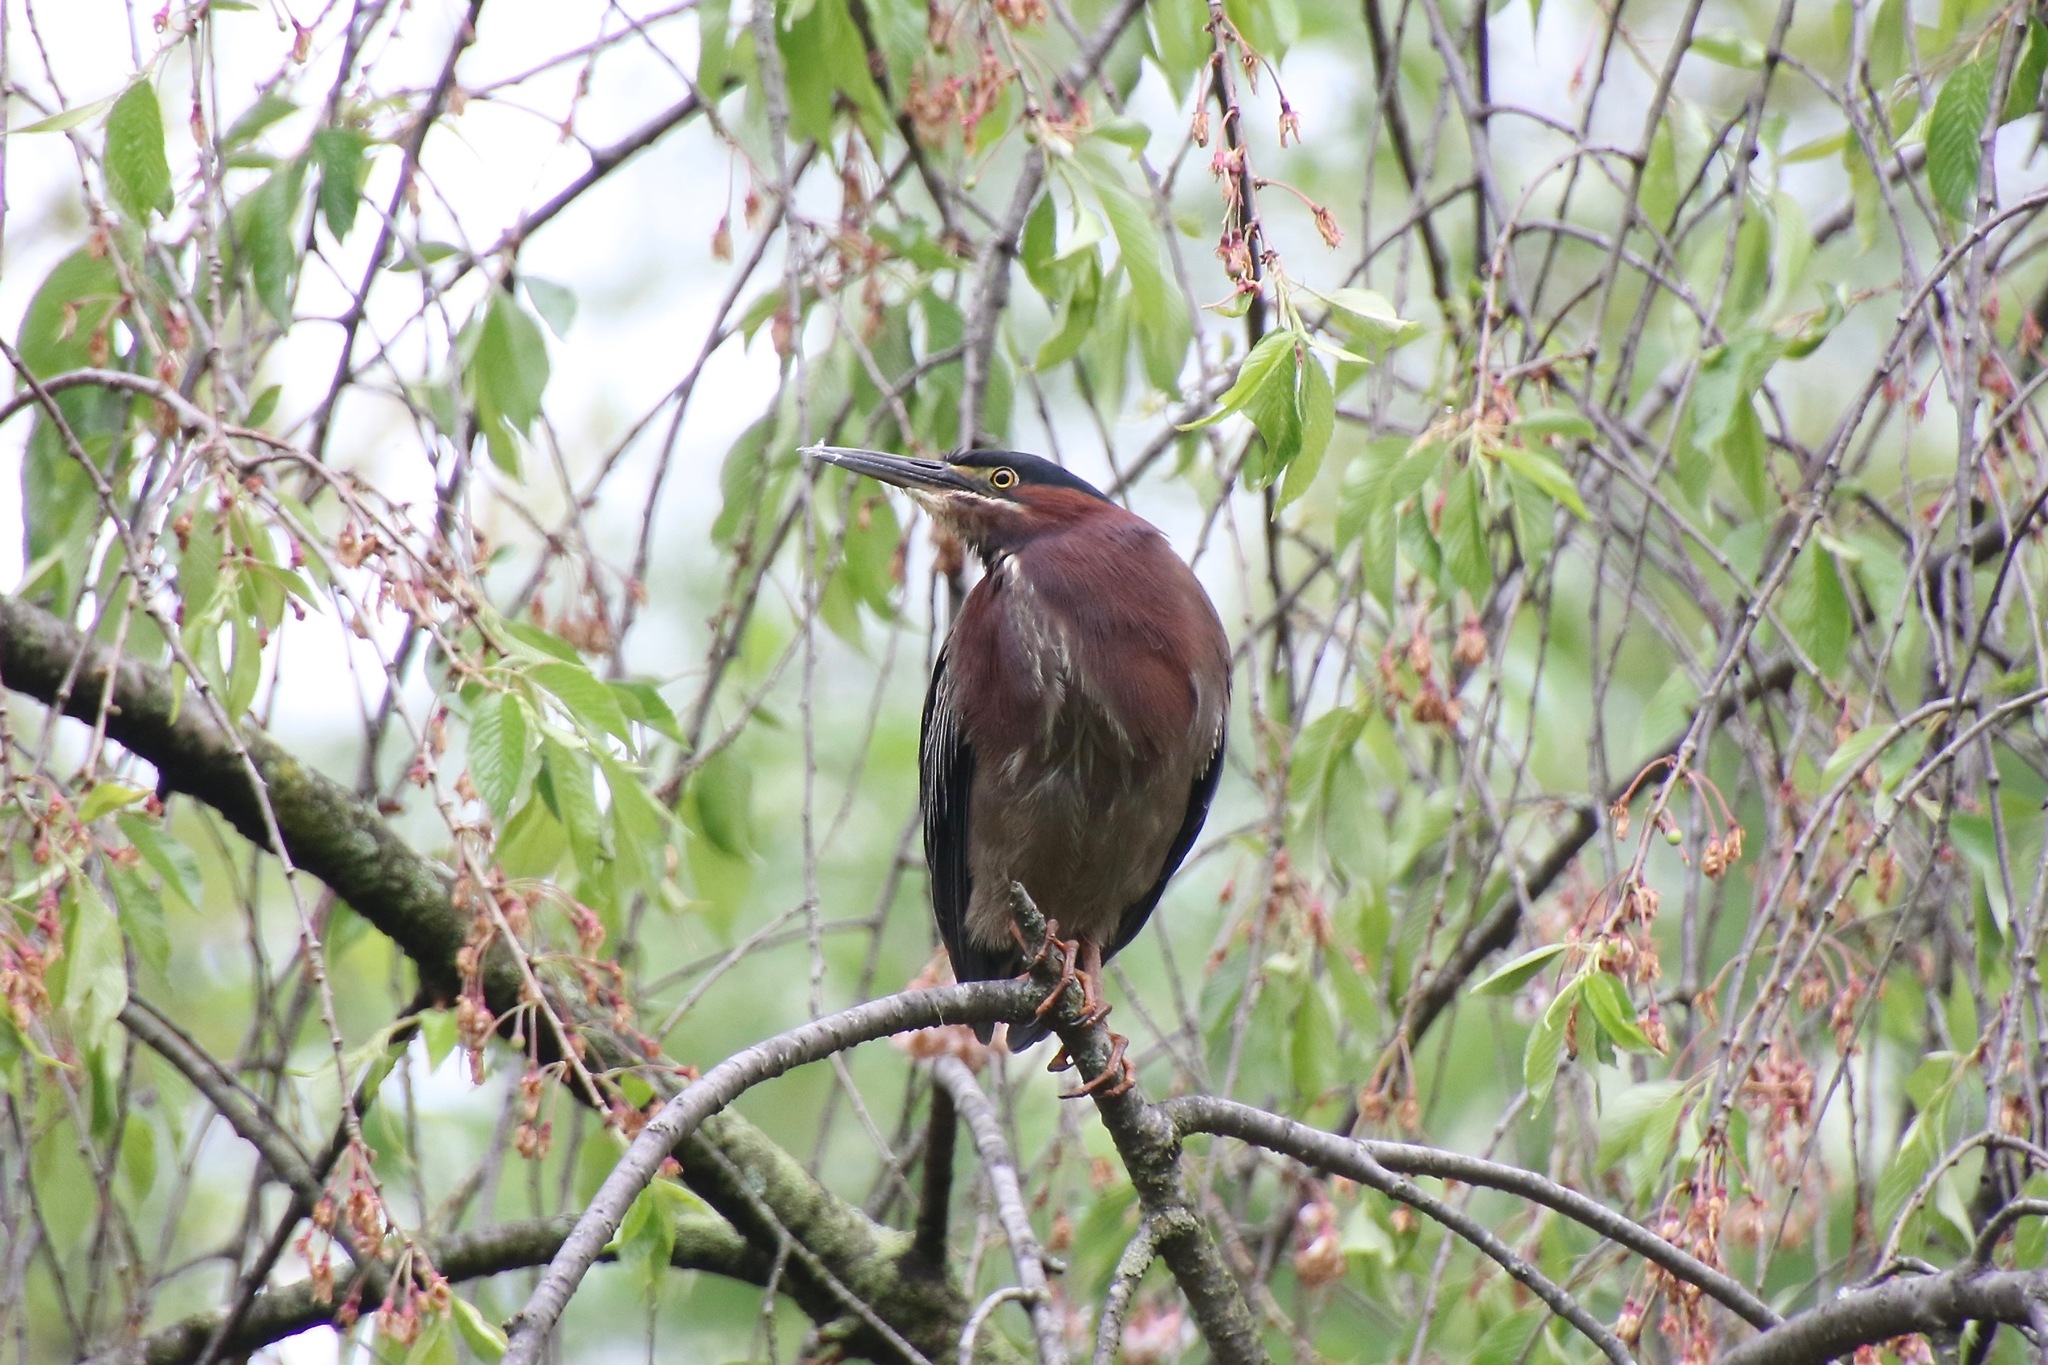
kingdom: Animalia
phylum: Chordata
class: Aves
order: Pelecaniformes
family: Ardeidae
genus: Butorides
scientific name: Butorides virescens
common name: Green heron
